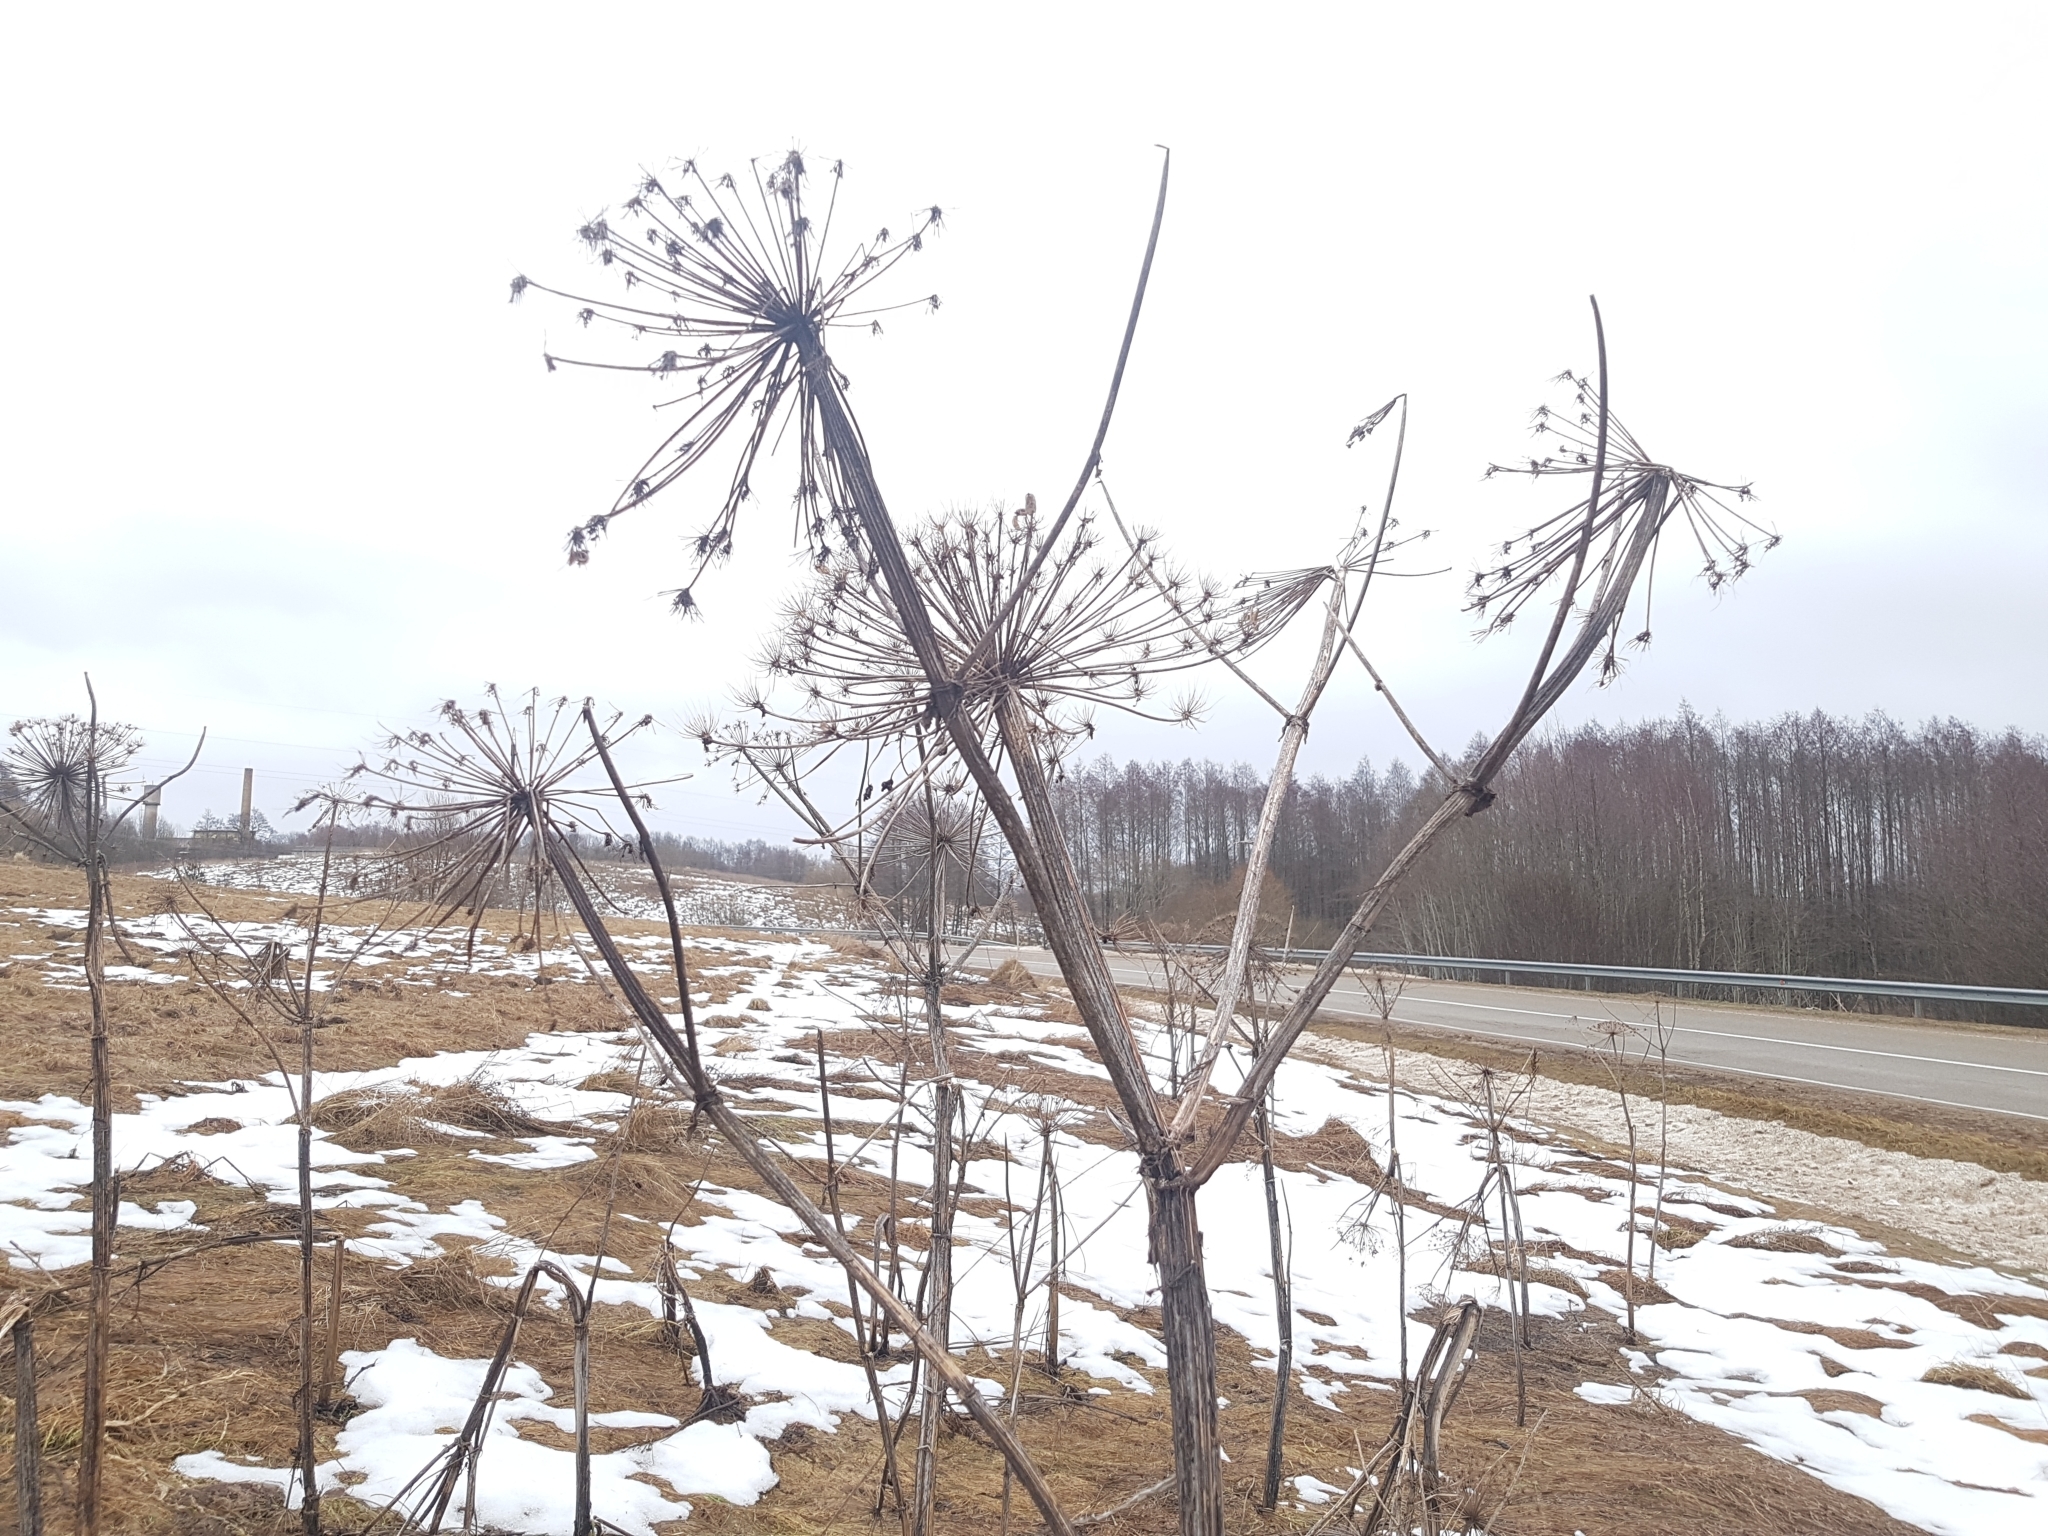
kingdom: Plantae
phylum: Tracheophyta
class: Magnoliopsida
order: Apiales
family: Apiaceae
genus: Heracleum
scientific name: Heracleum sosnowskyi
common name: Sosnowsky's hogweed
